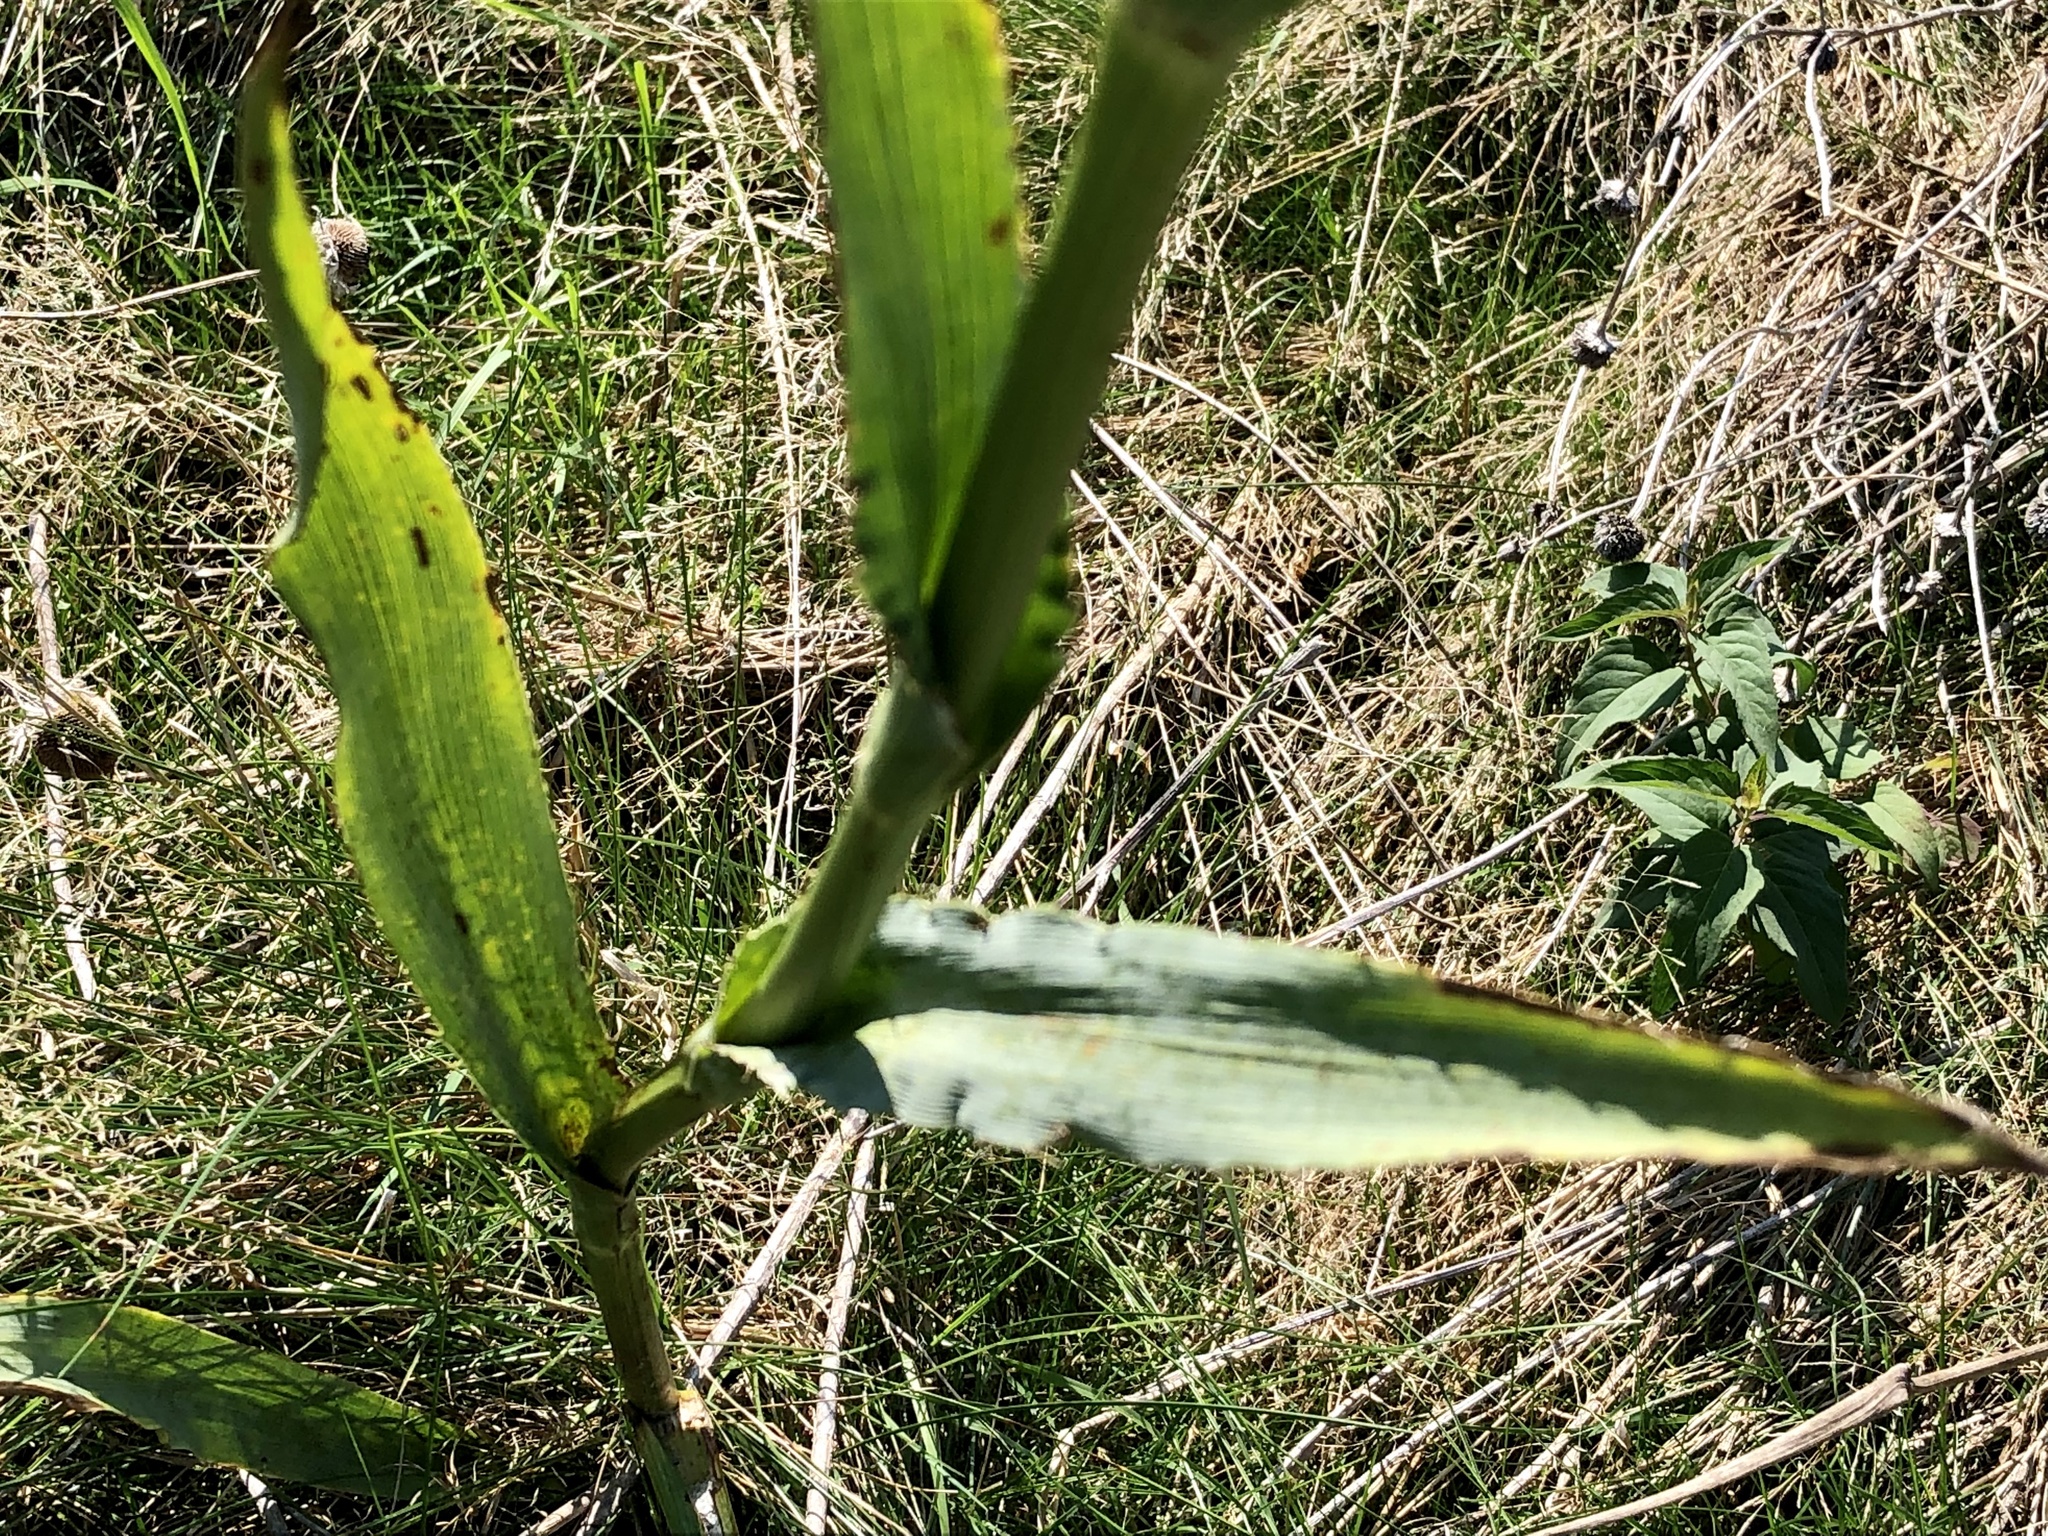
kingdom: Plantae
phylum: Tracheophyta
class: Magnoliopsida
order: Apiales
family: Apiaceae
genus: Eryngium
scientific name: Eryngium yuccifolium
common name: Button eryngo
